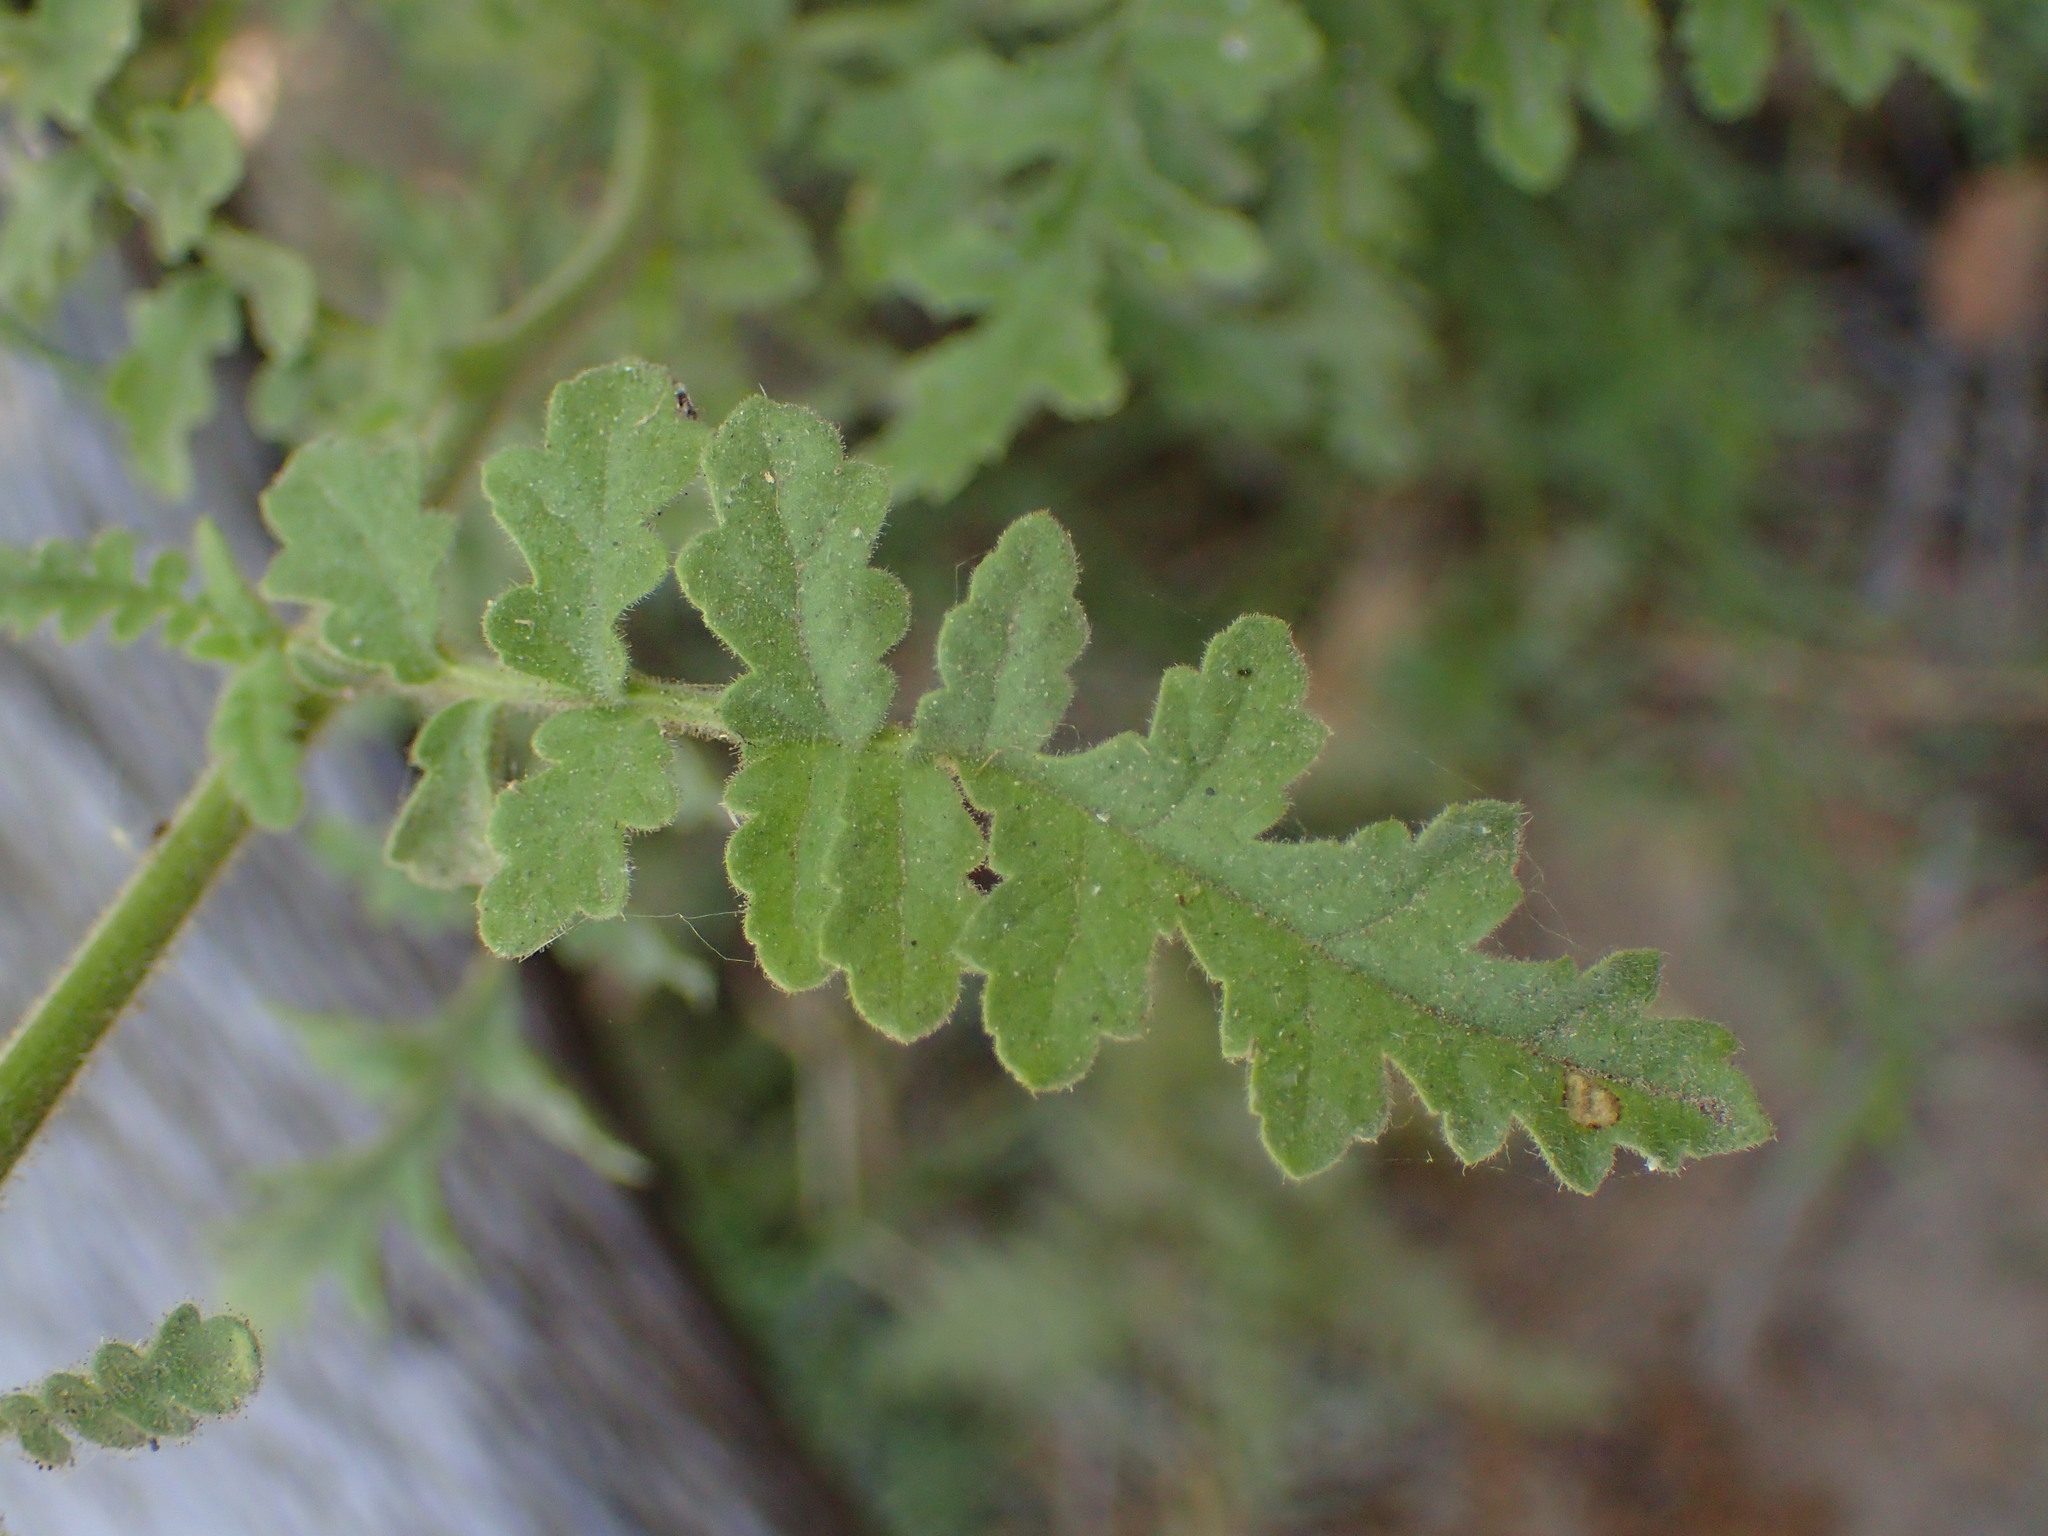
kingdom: Plantae
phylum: Tracheophyta
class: Magnoliopsida
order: Boraginales
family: Hydrophyllaceae
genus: Phacelia
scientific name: Phacelia ramosissima
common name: Branching phacelia
